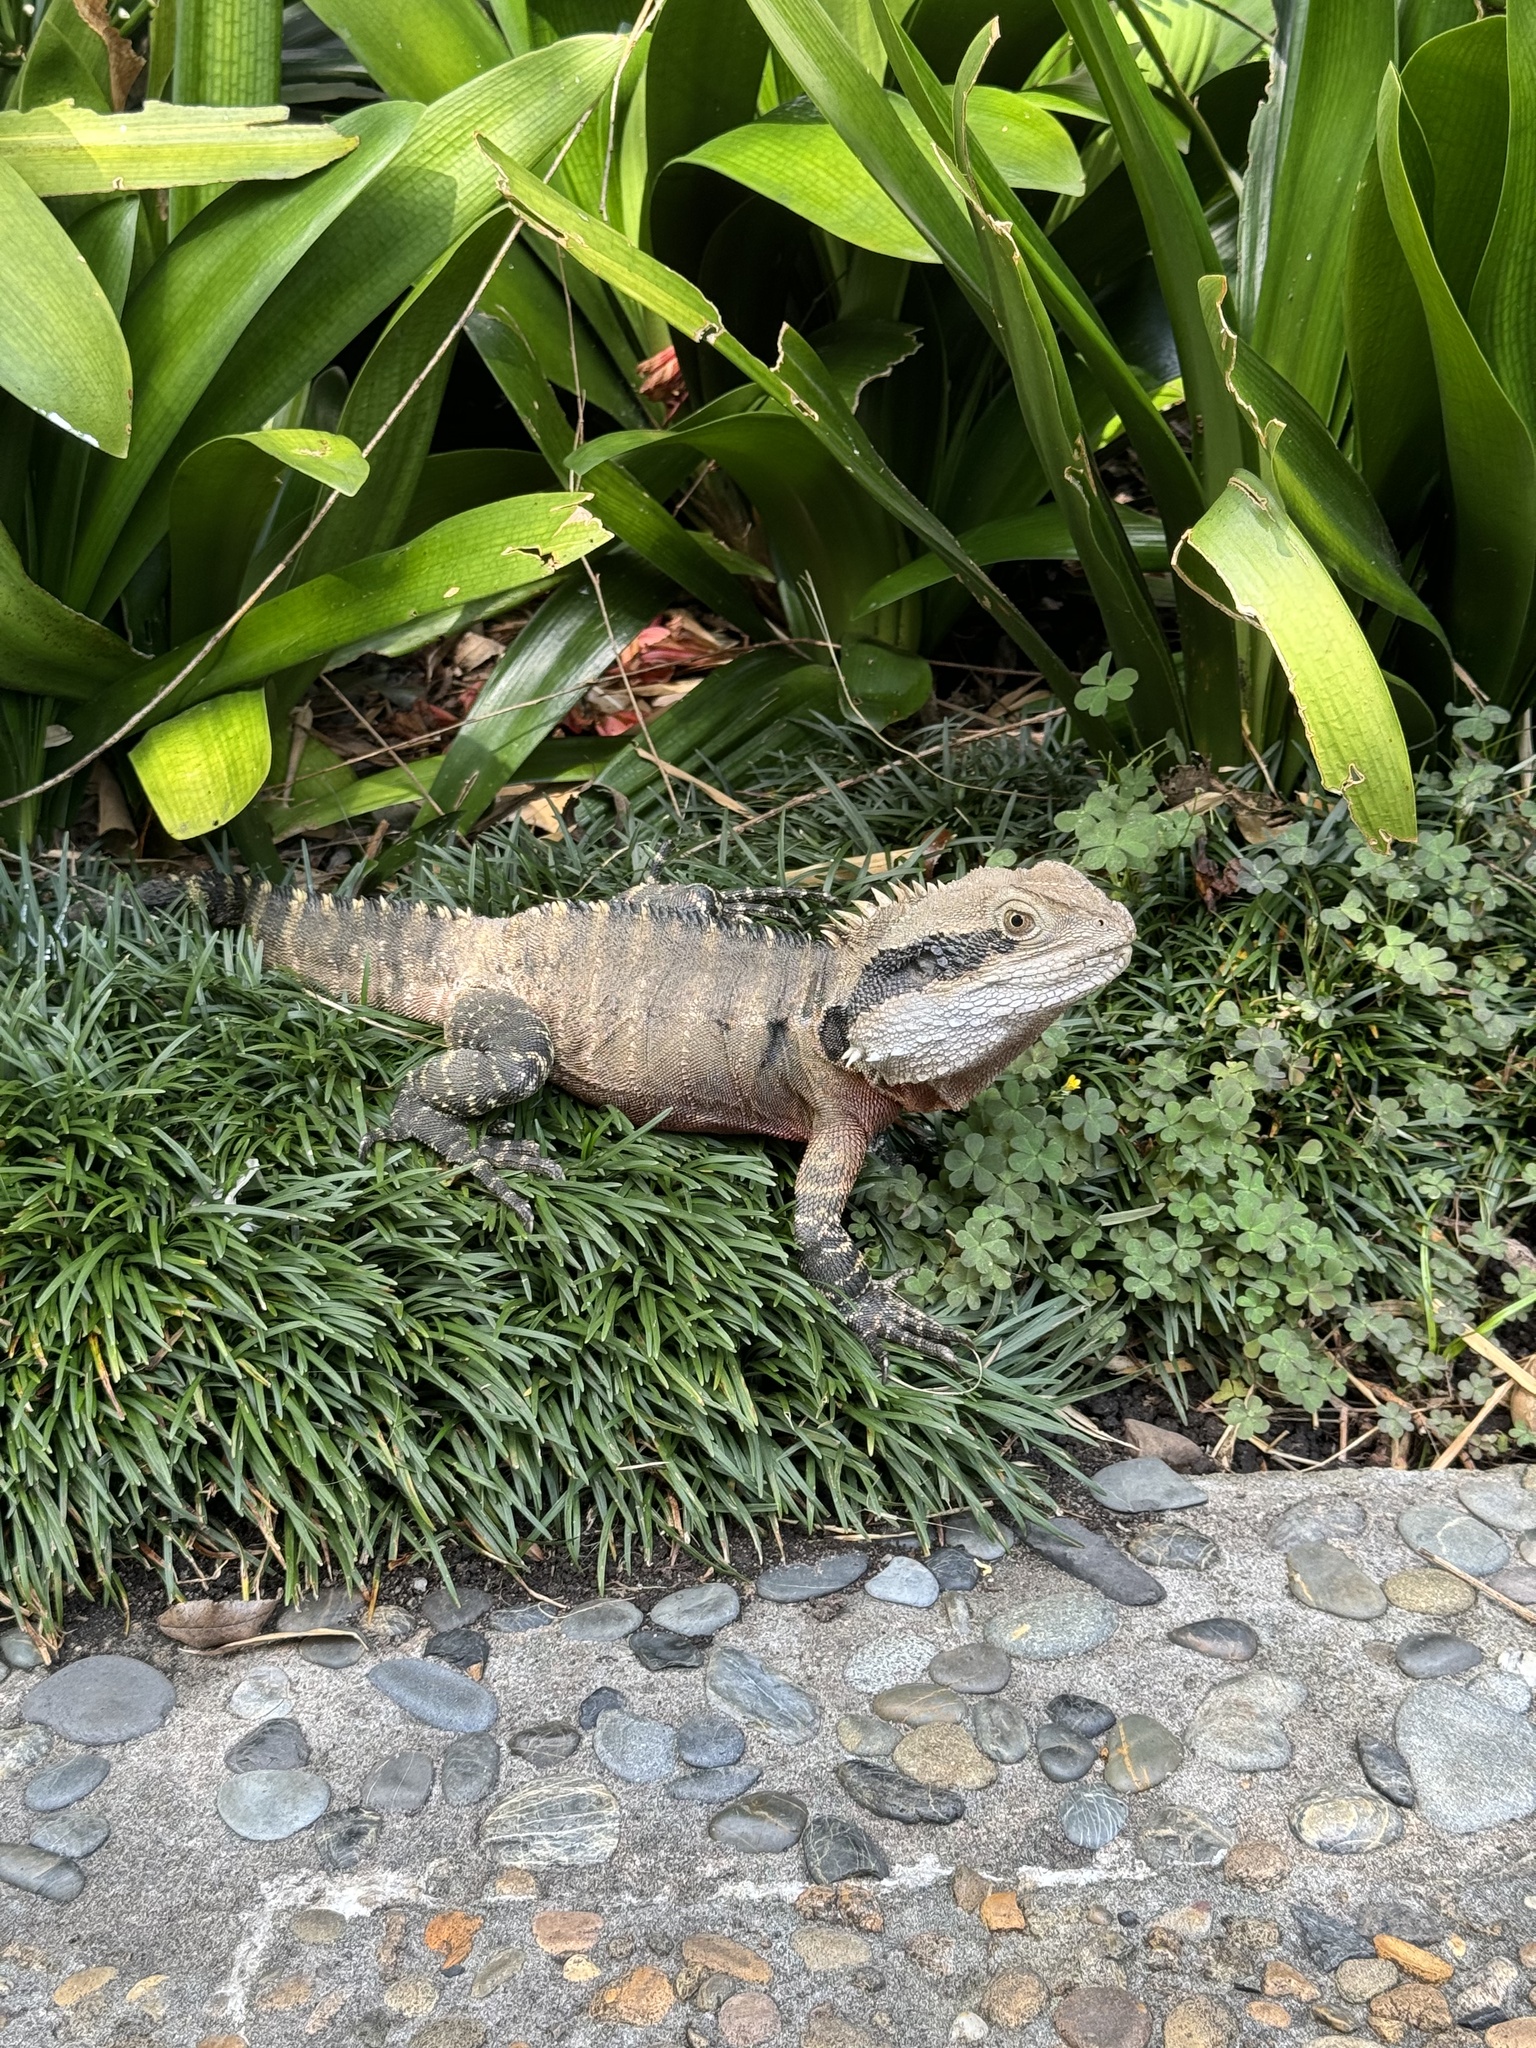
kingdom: Animalia
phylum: Chordata
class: Squamata
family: Agamidae
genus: Intellagama
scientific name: Intellagama lesueurii
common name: Eastern water dragon
